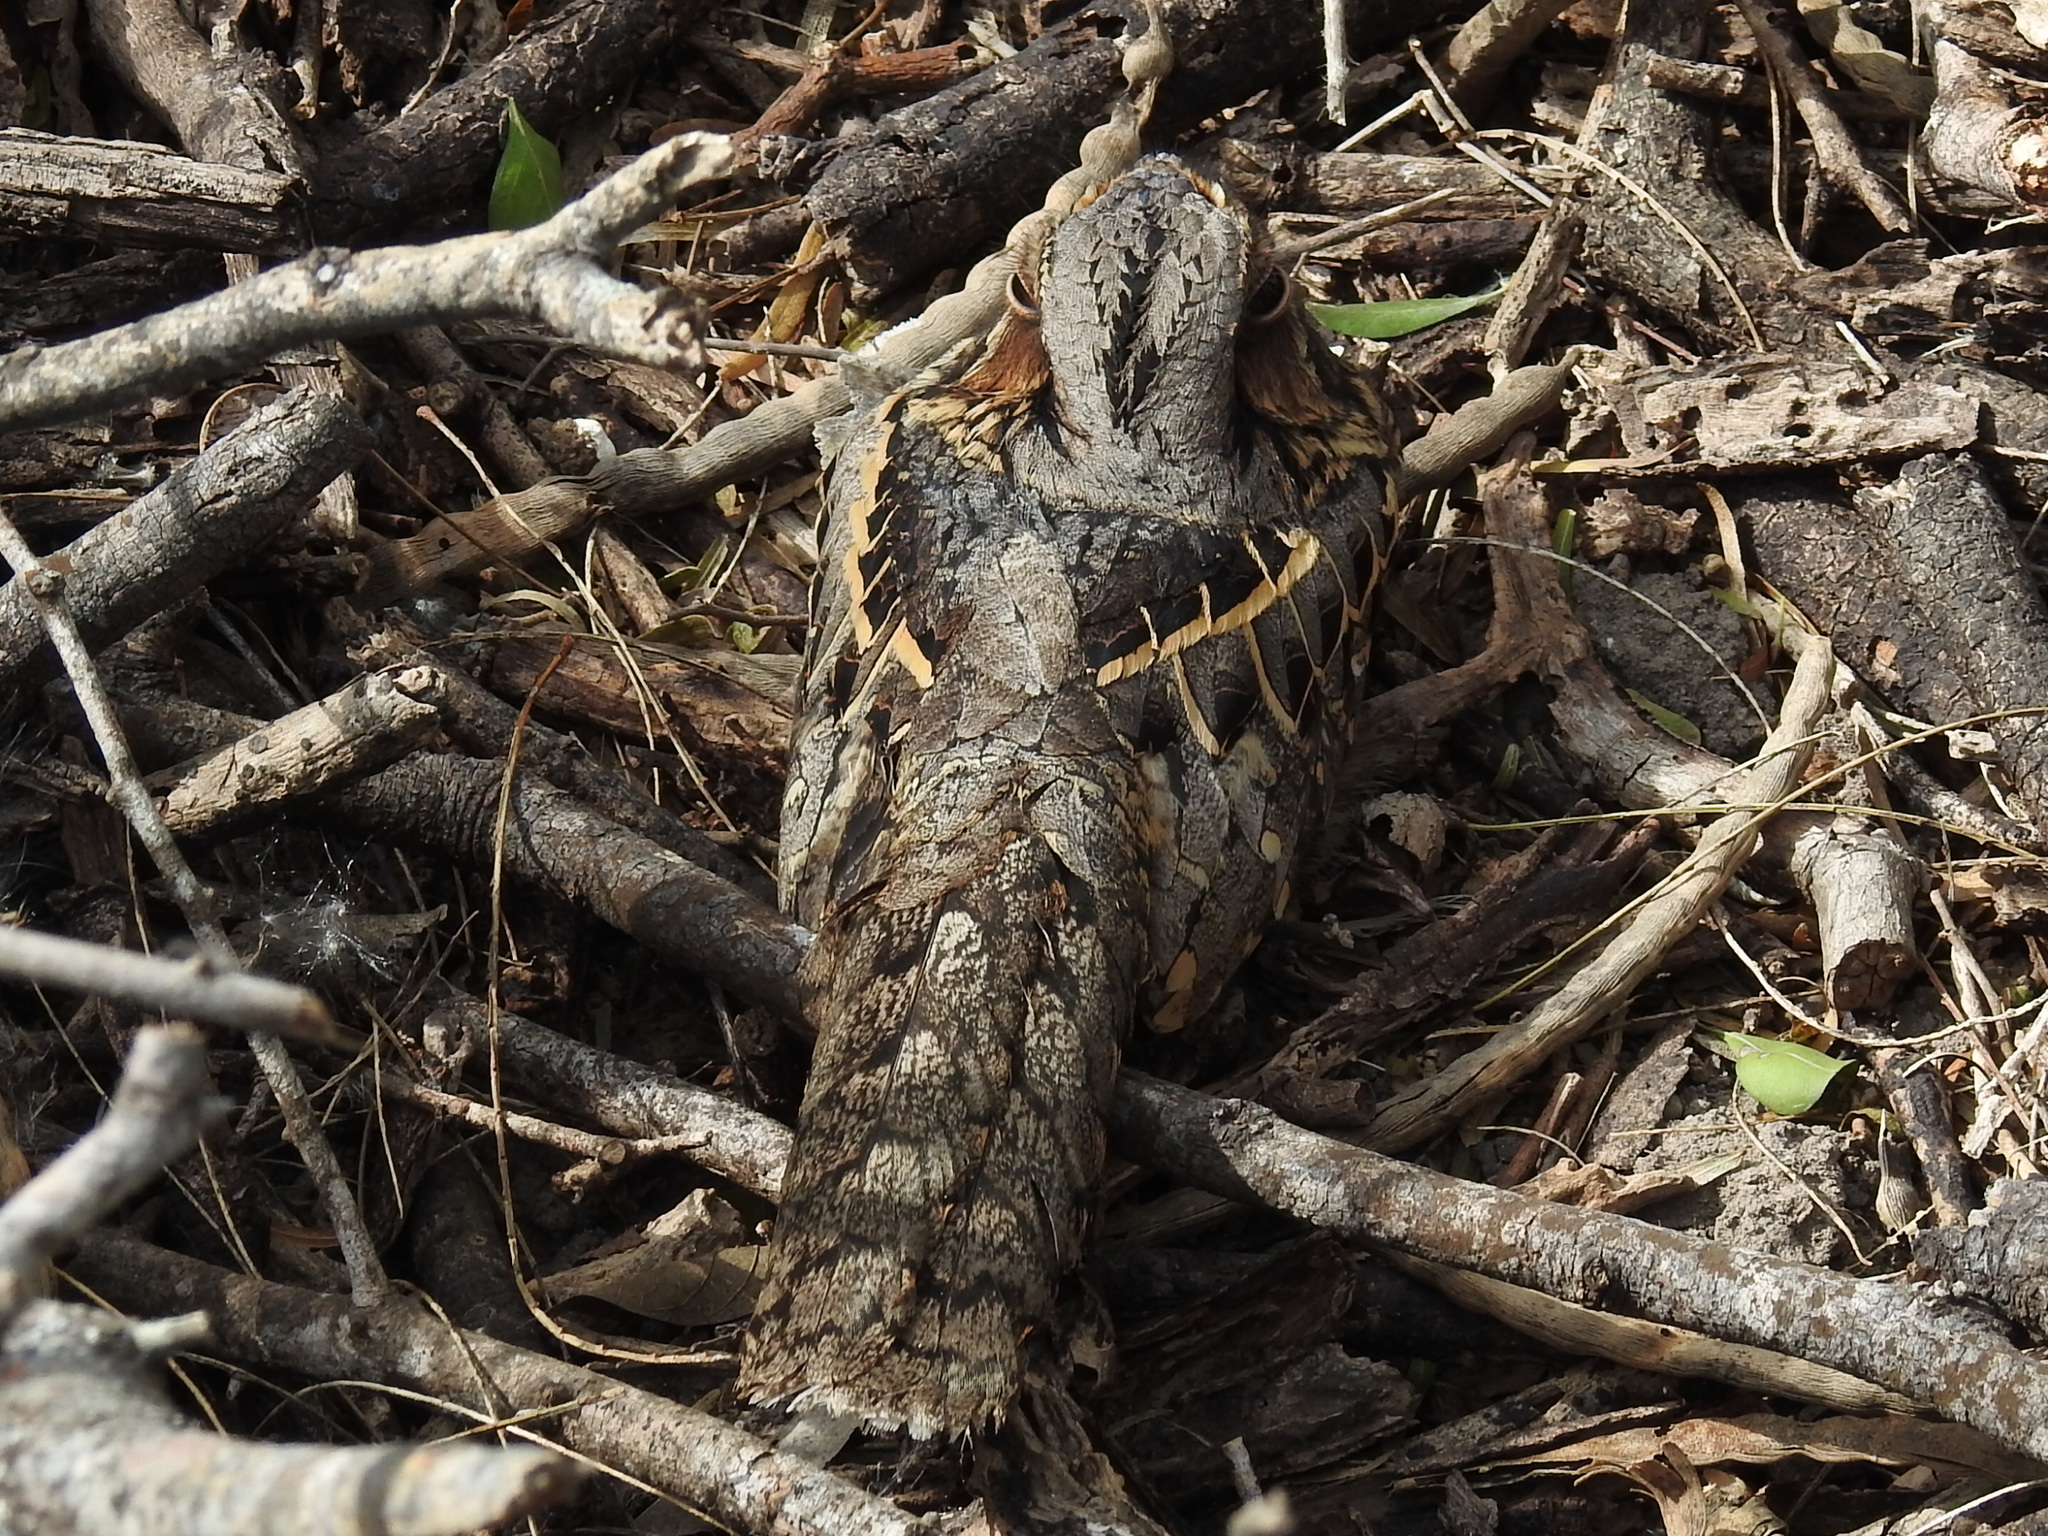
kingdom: Animalia
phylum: Chordata
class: Aves
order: Caprimulgiformes
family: Caprimulgidae
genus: Nyctidromus
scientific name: Nyctidromus albicollis
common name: Pauraque
